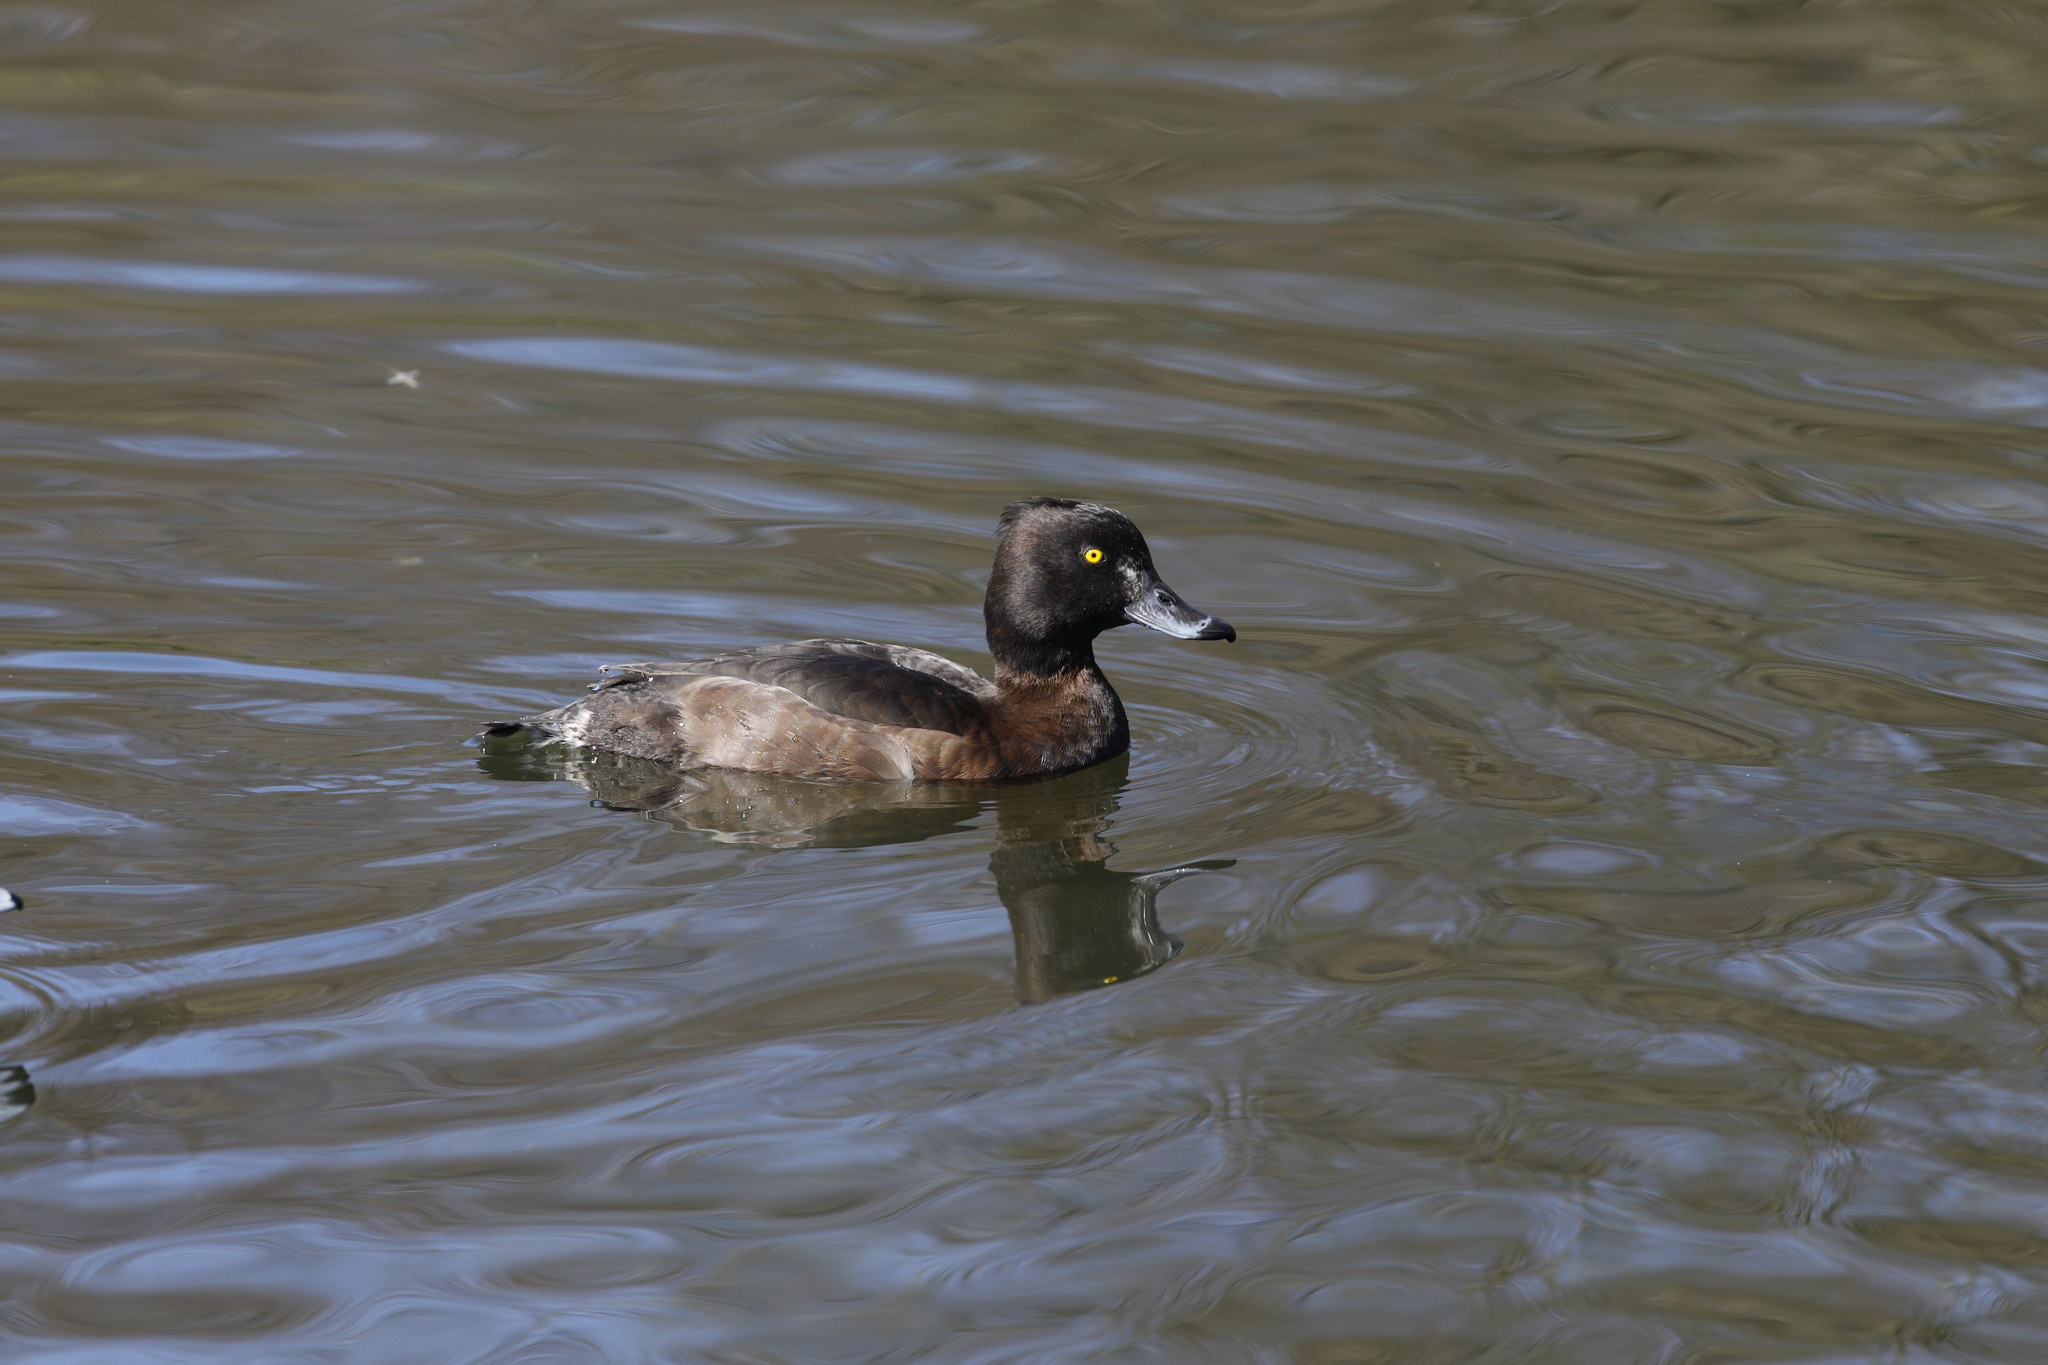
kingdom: Animalia
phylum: Chordata
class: Aves
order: Anseriformes
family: Anatidae
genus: Aythya
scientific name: Aythya fuligula
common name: Tufted duck
